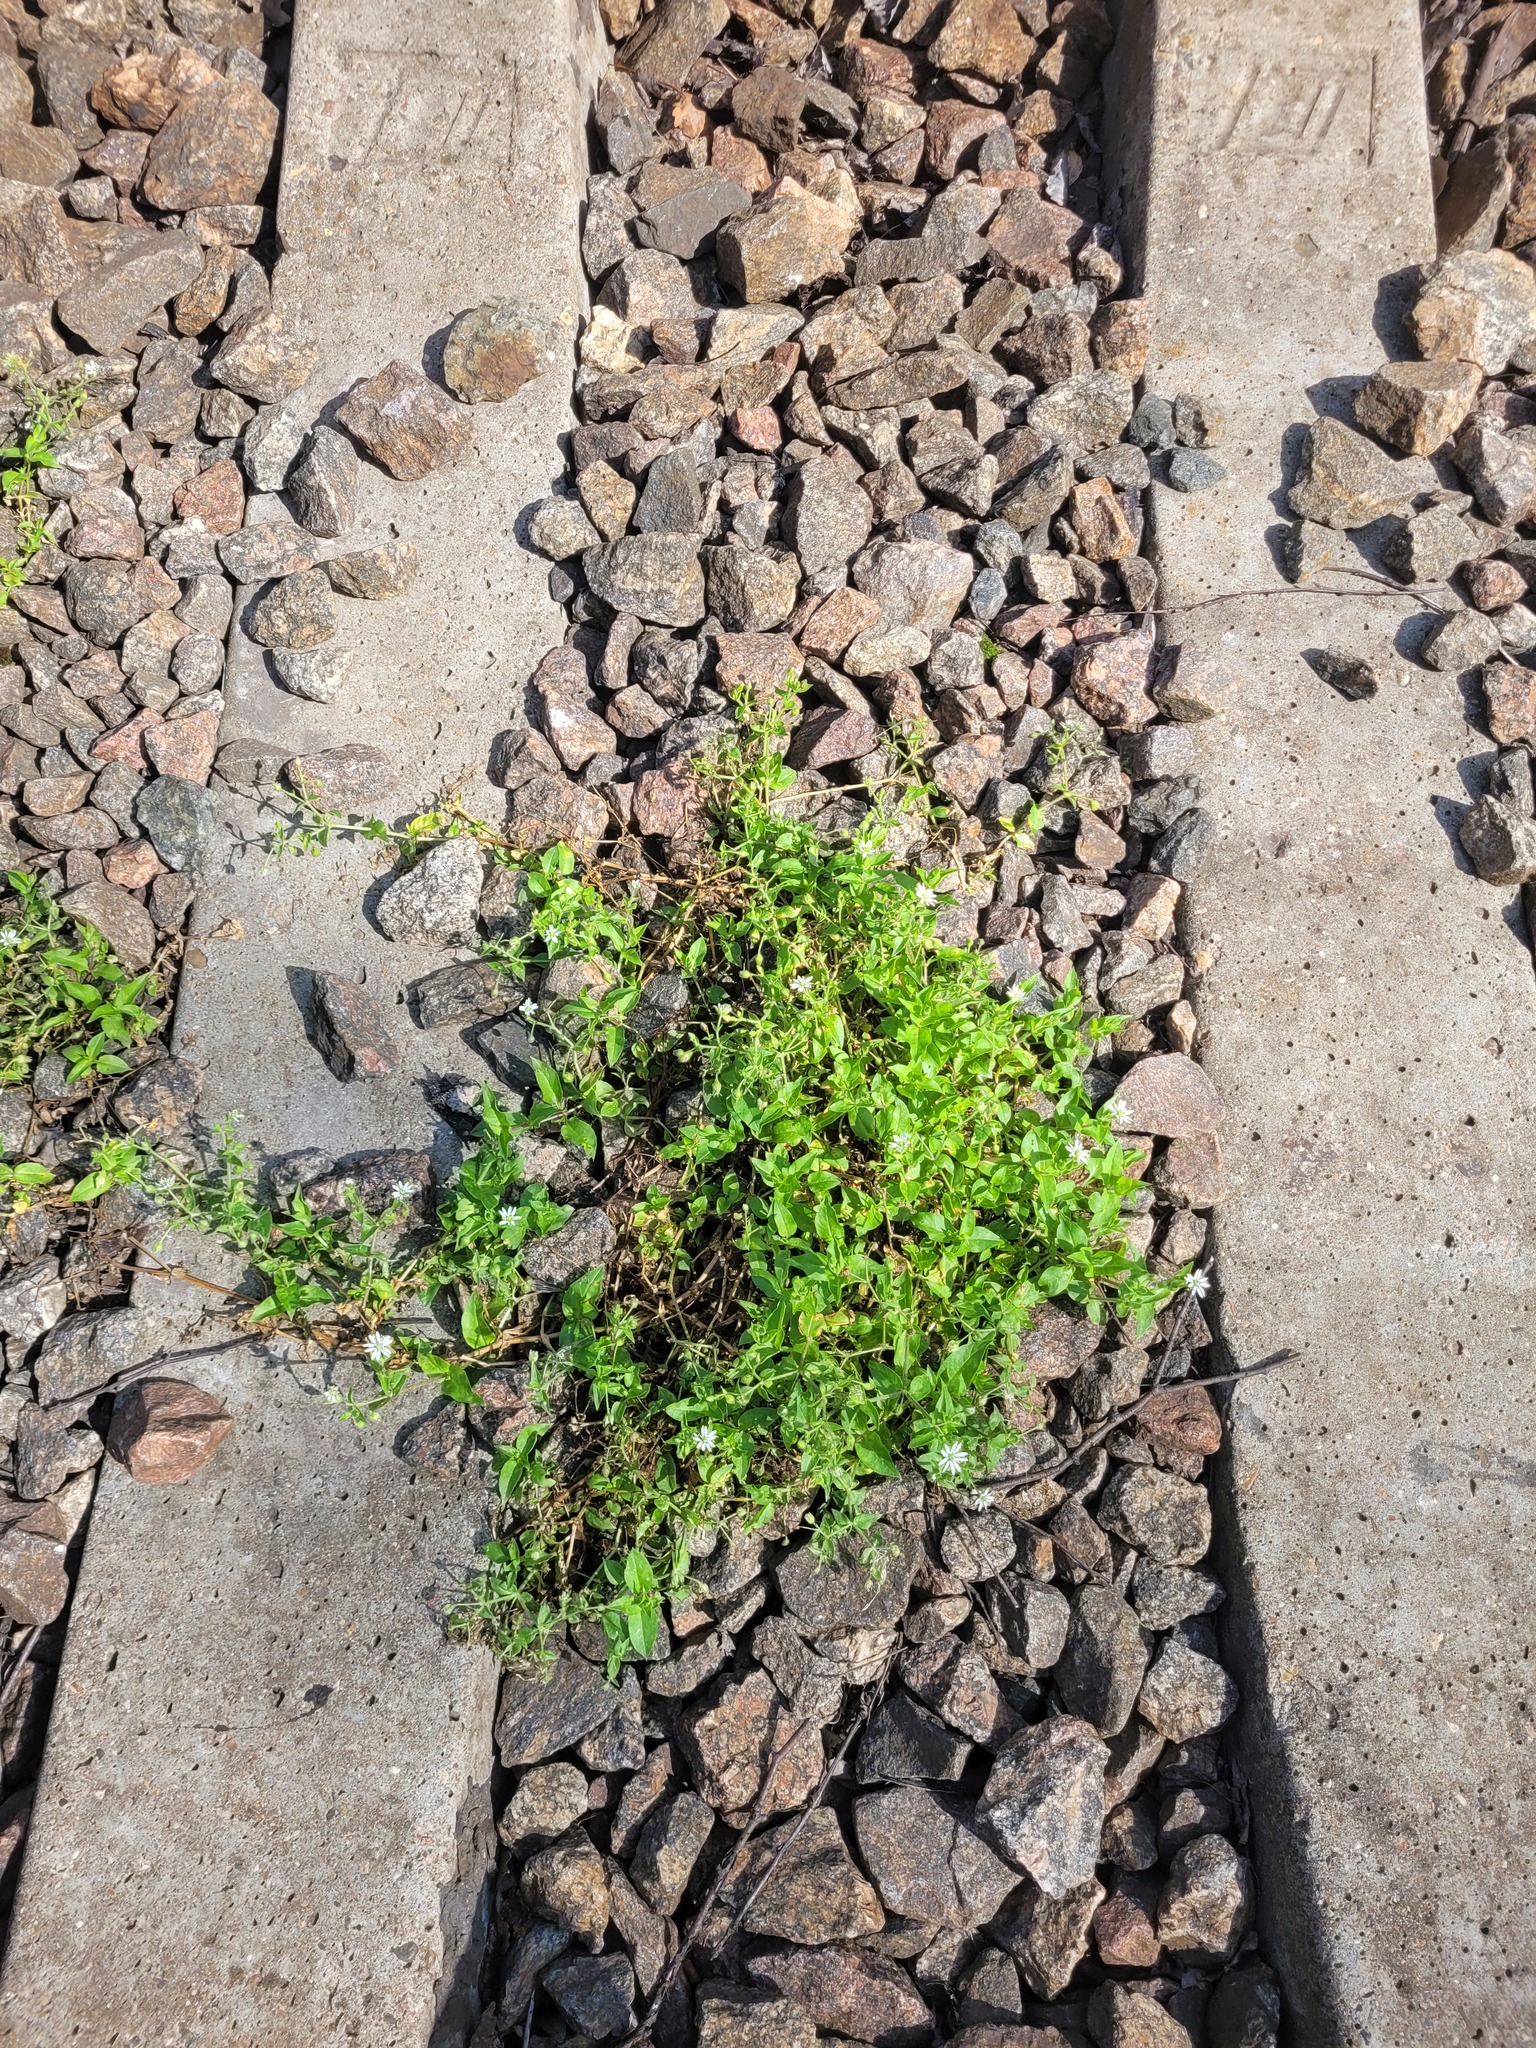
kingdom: Plantae
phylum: Tracheophyta
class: Magnoliopsida
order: Caryophyllales
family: Caryophyllaceae
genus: Stellaria
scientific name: Stellaria aquatica
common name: Water chickweed
